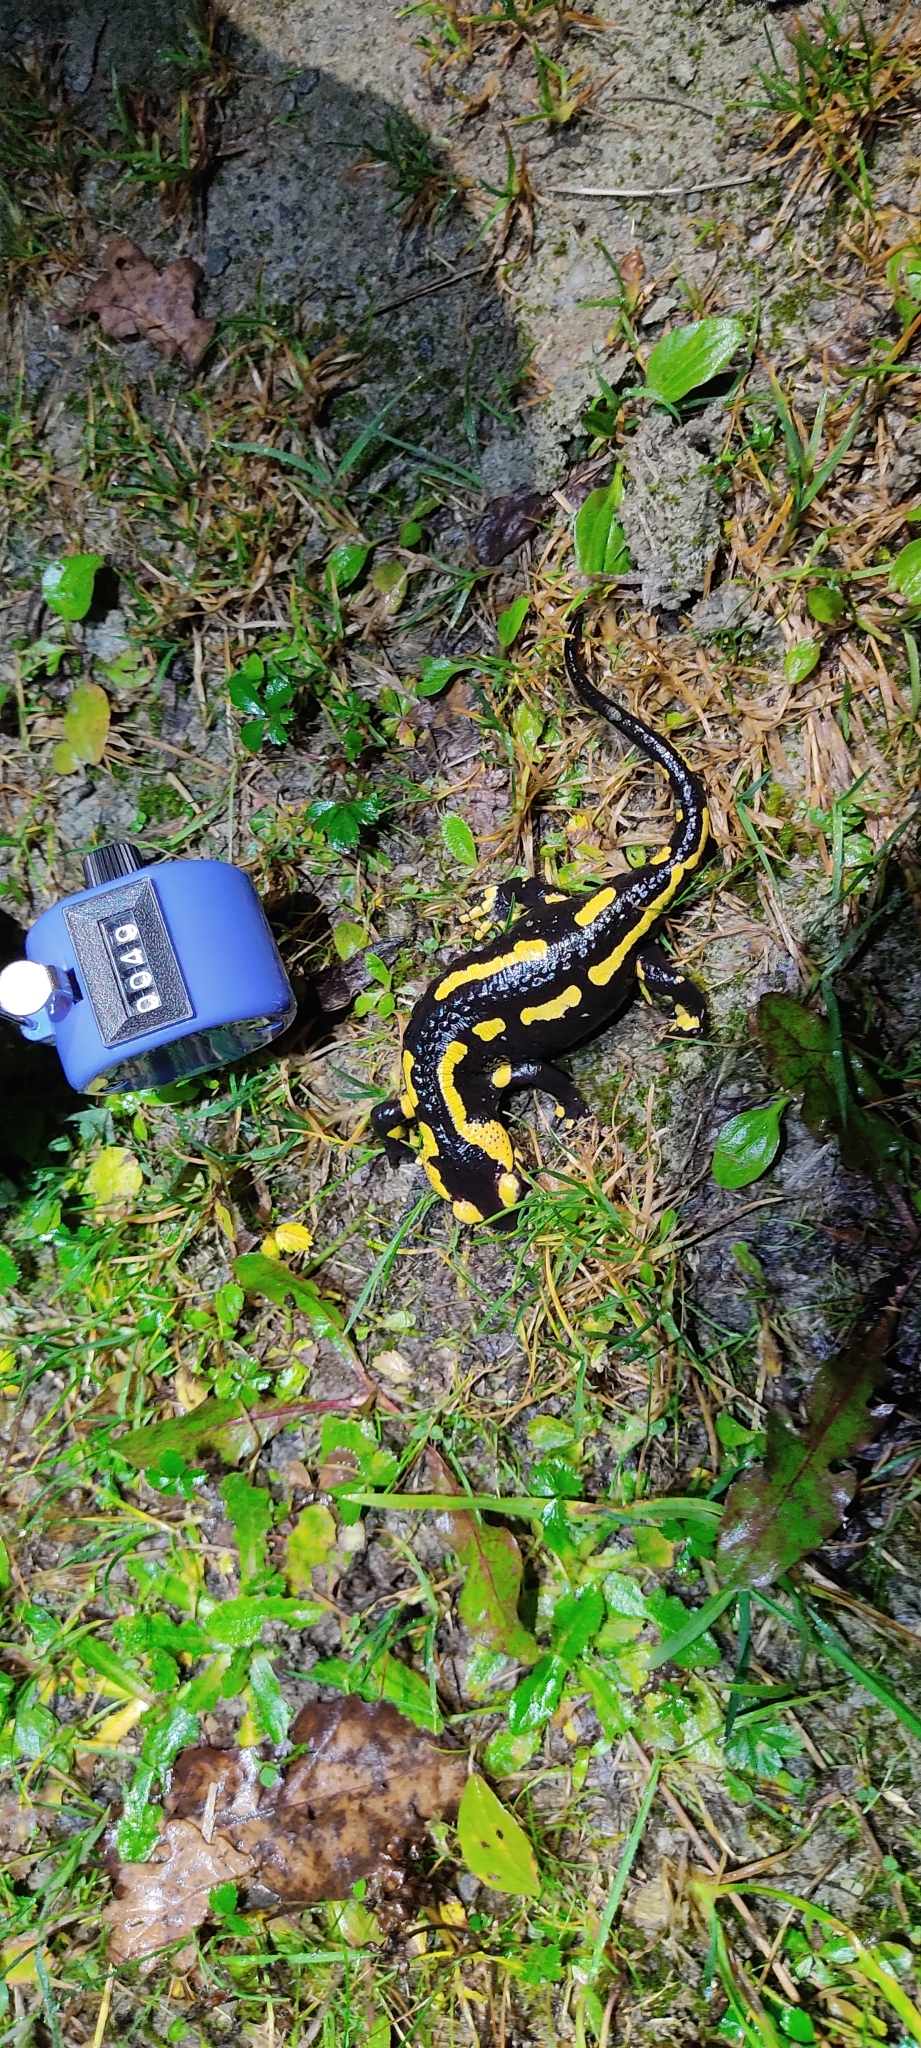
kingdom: Animalia
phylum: Chordata
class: Amphibia
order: Caudata
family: Salamandridae
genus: Salamandra
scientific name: Salamandra salamandra
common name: Fire salamander
